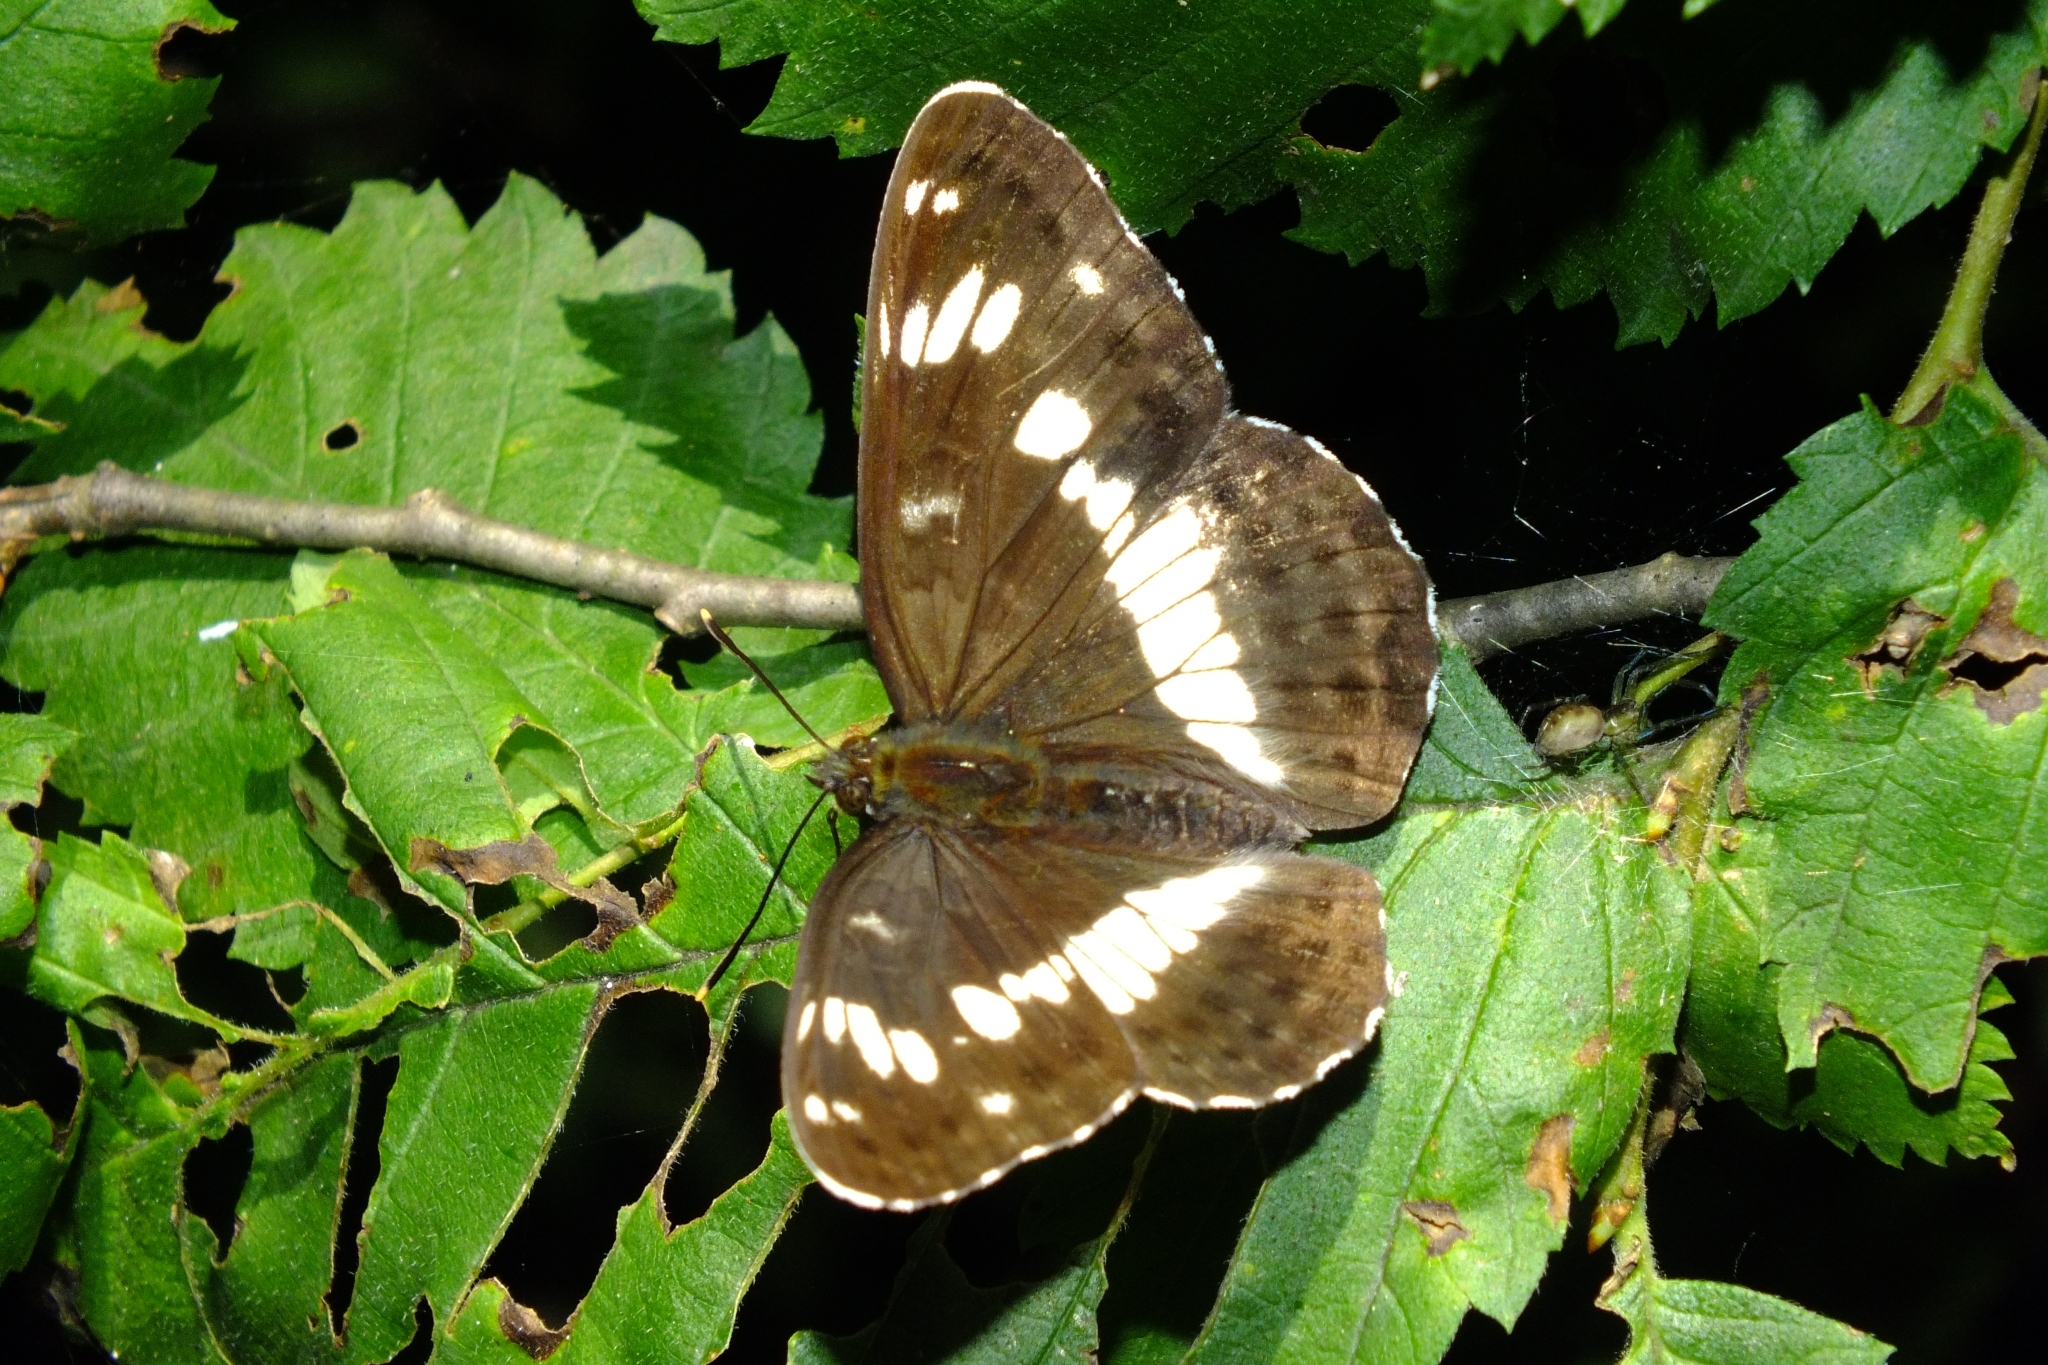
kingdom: Animalia
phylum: Arthropoda
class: Insecta
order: Lepidoptera
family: Nymphalidae
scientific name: Nymphalidae
